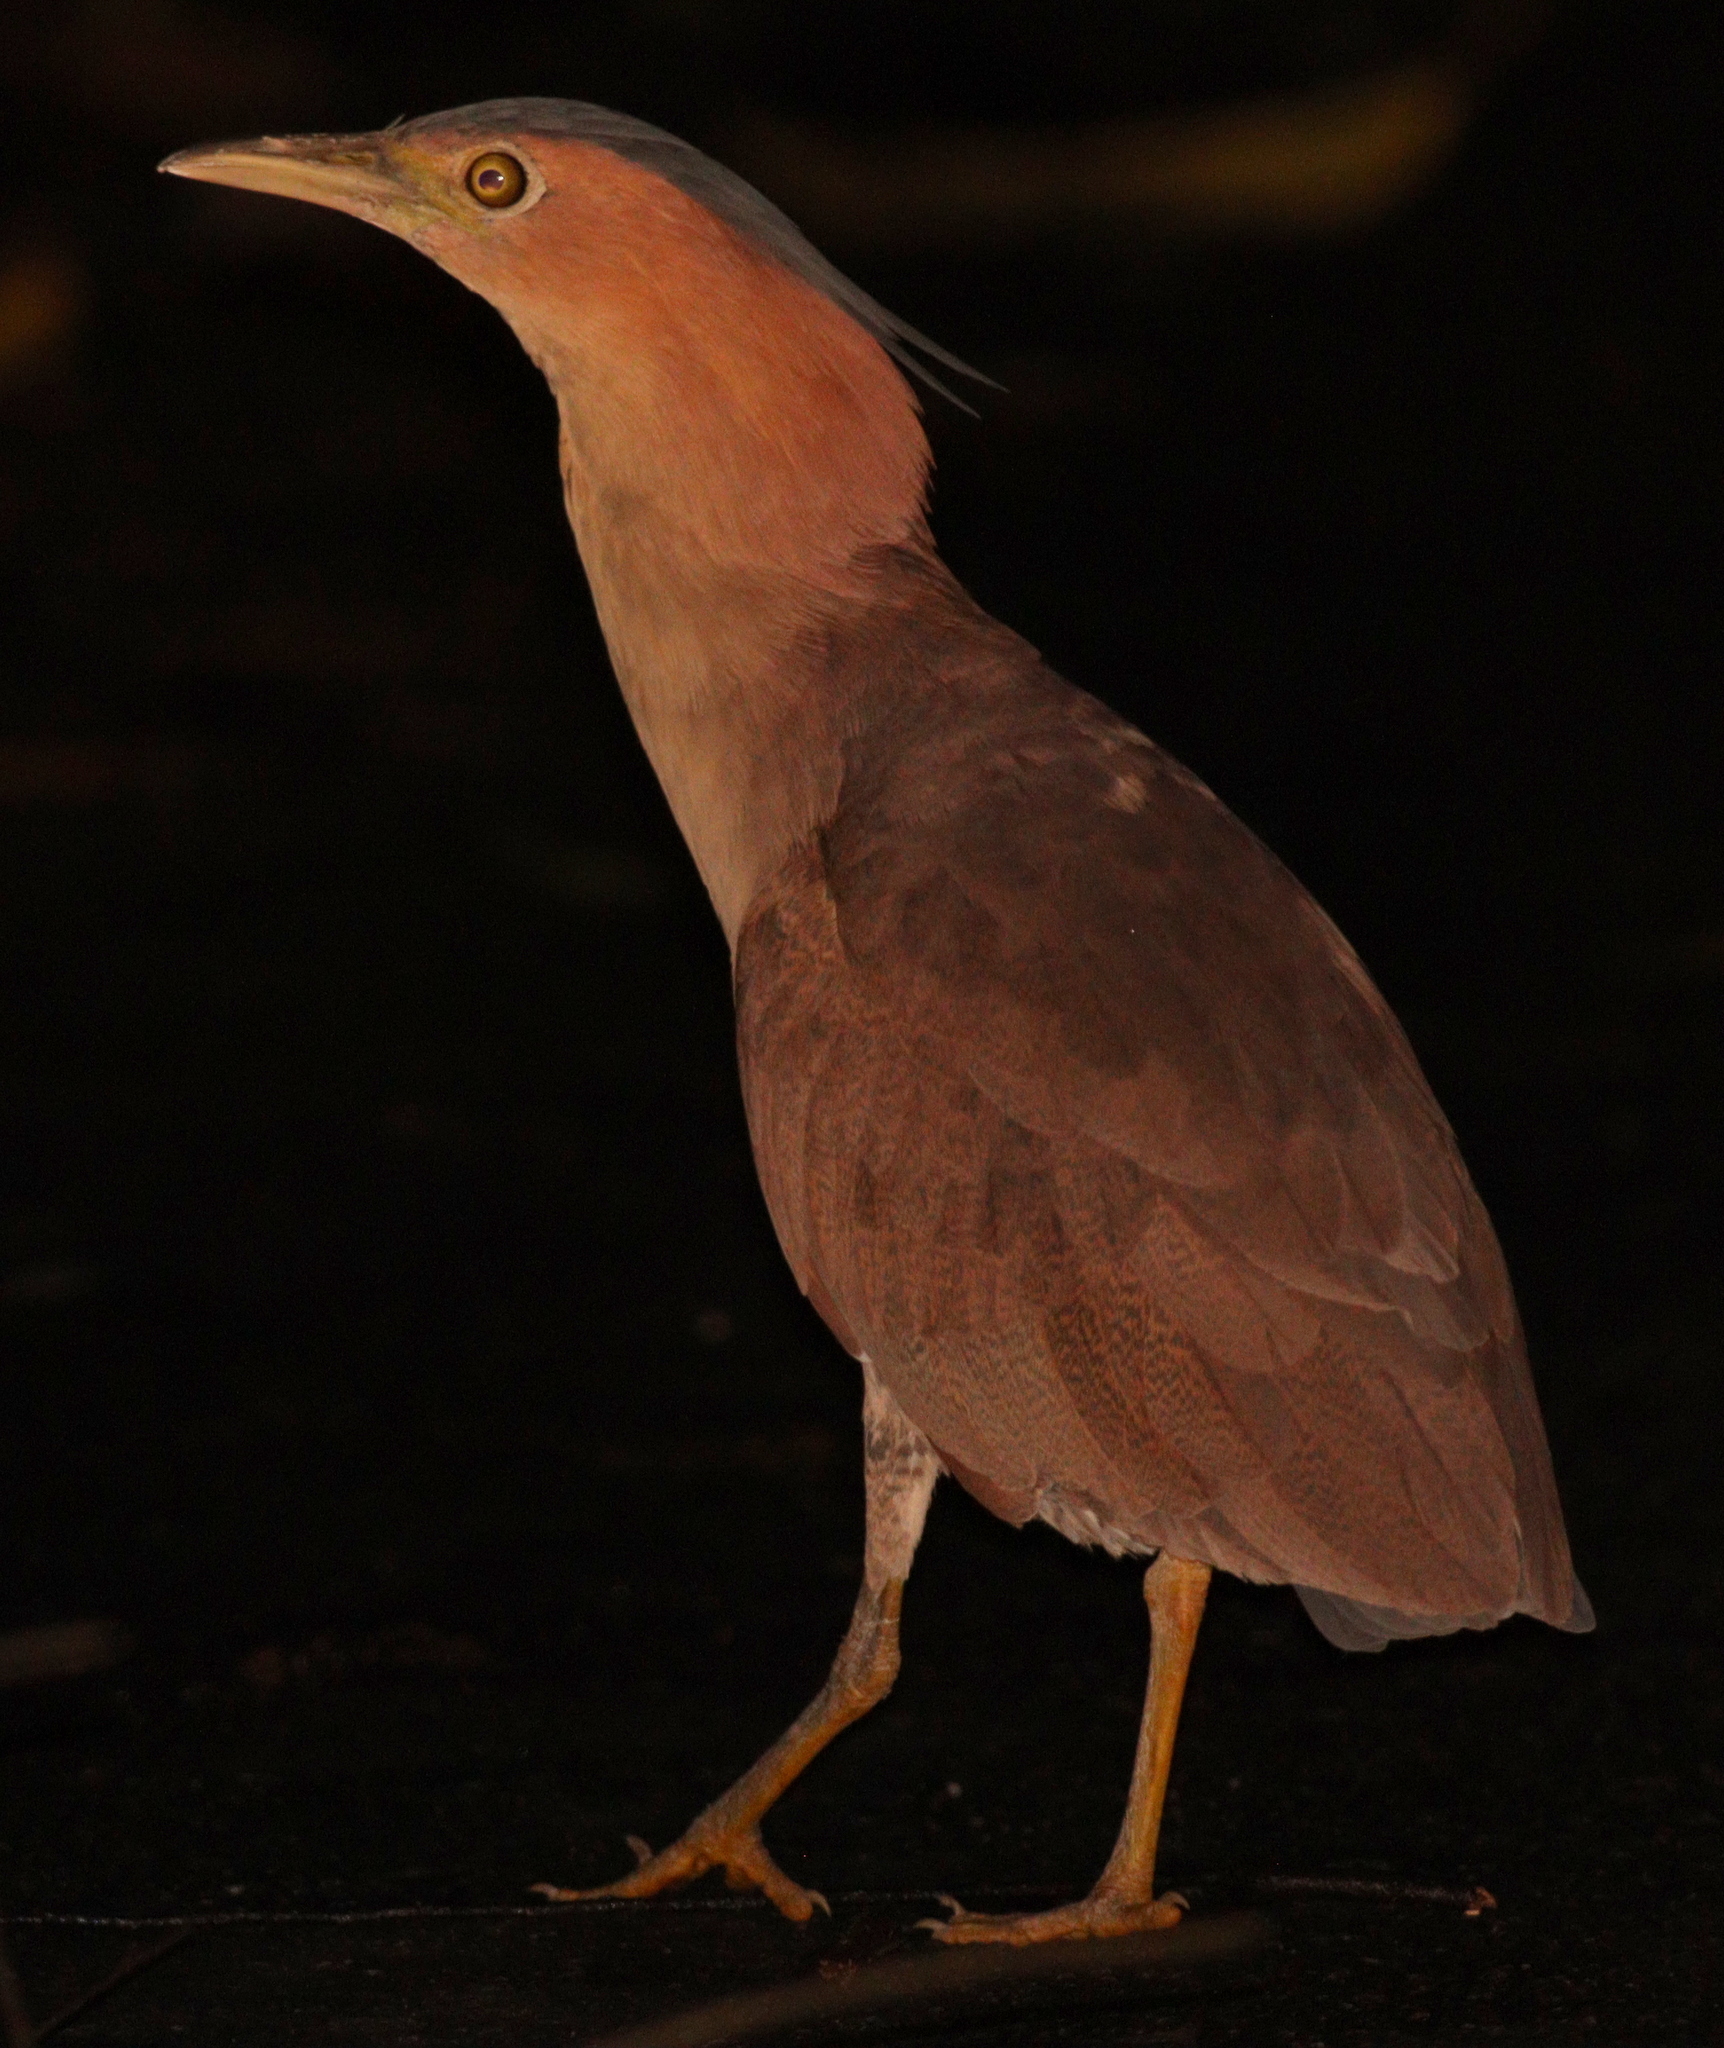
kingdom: Animalia
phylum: Chordata
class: Aves
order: Pelecaniformes
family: Ardeidae
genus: Gorsachius
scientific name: Gorsachius melanolophus
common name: Malayan night heron
